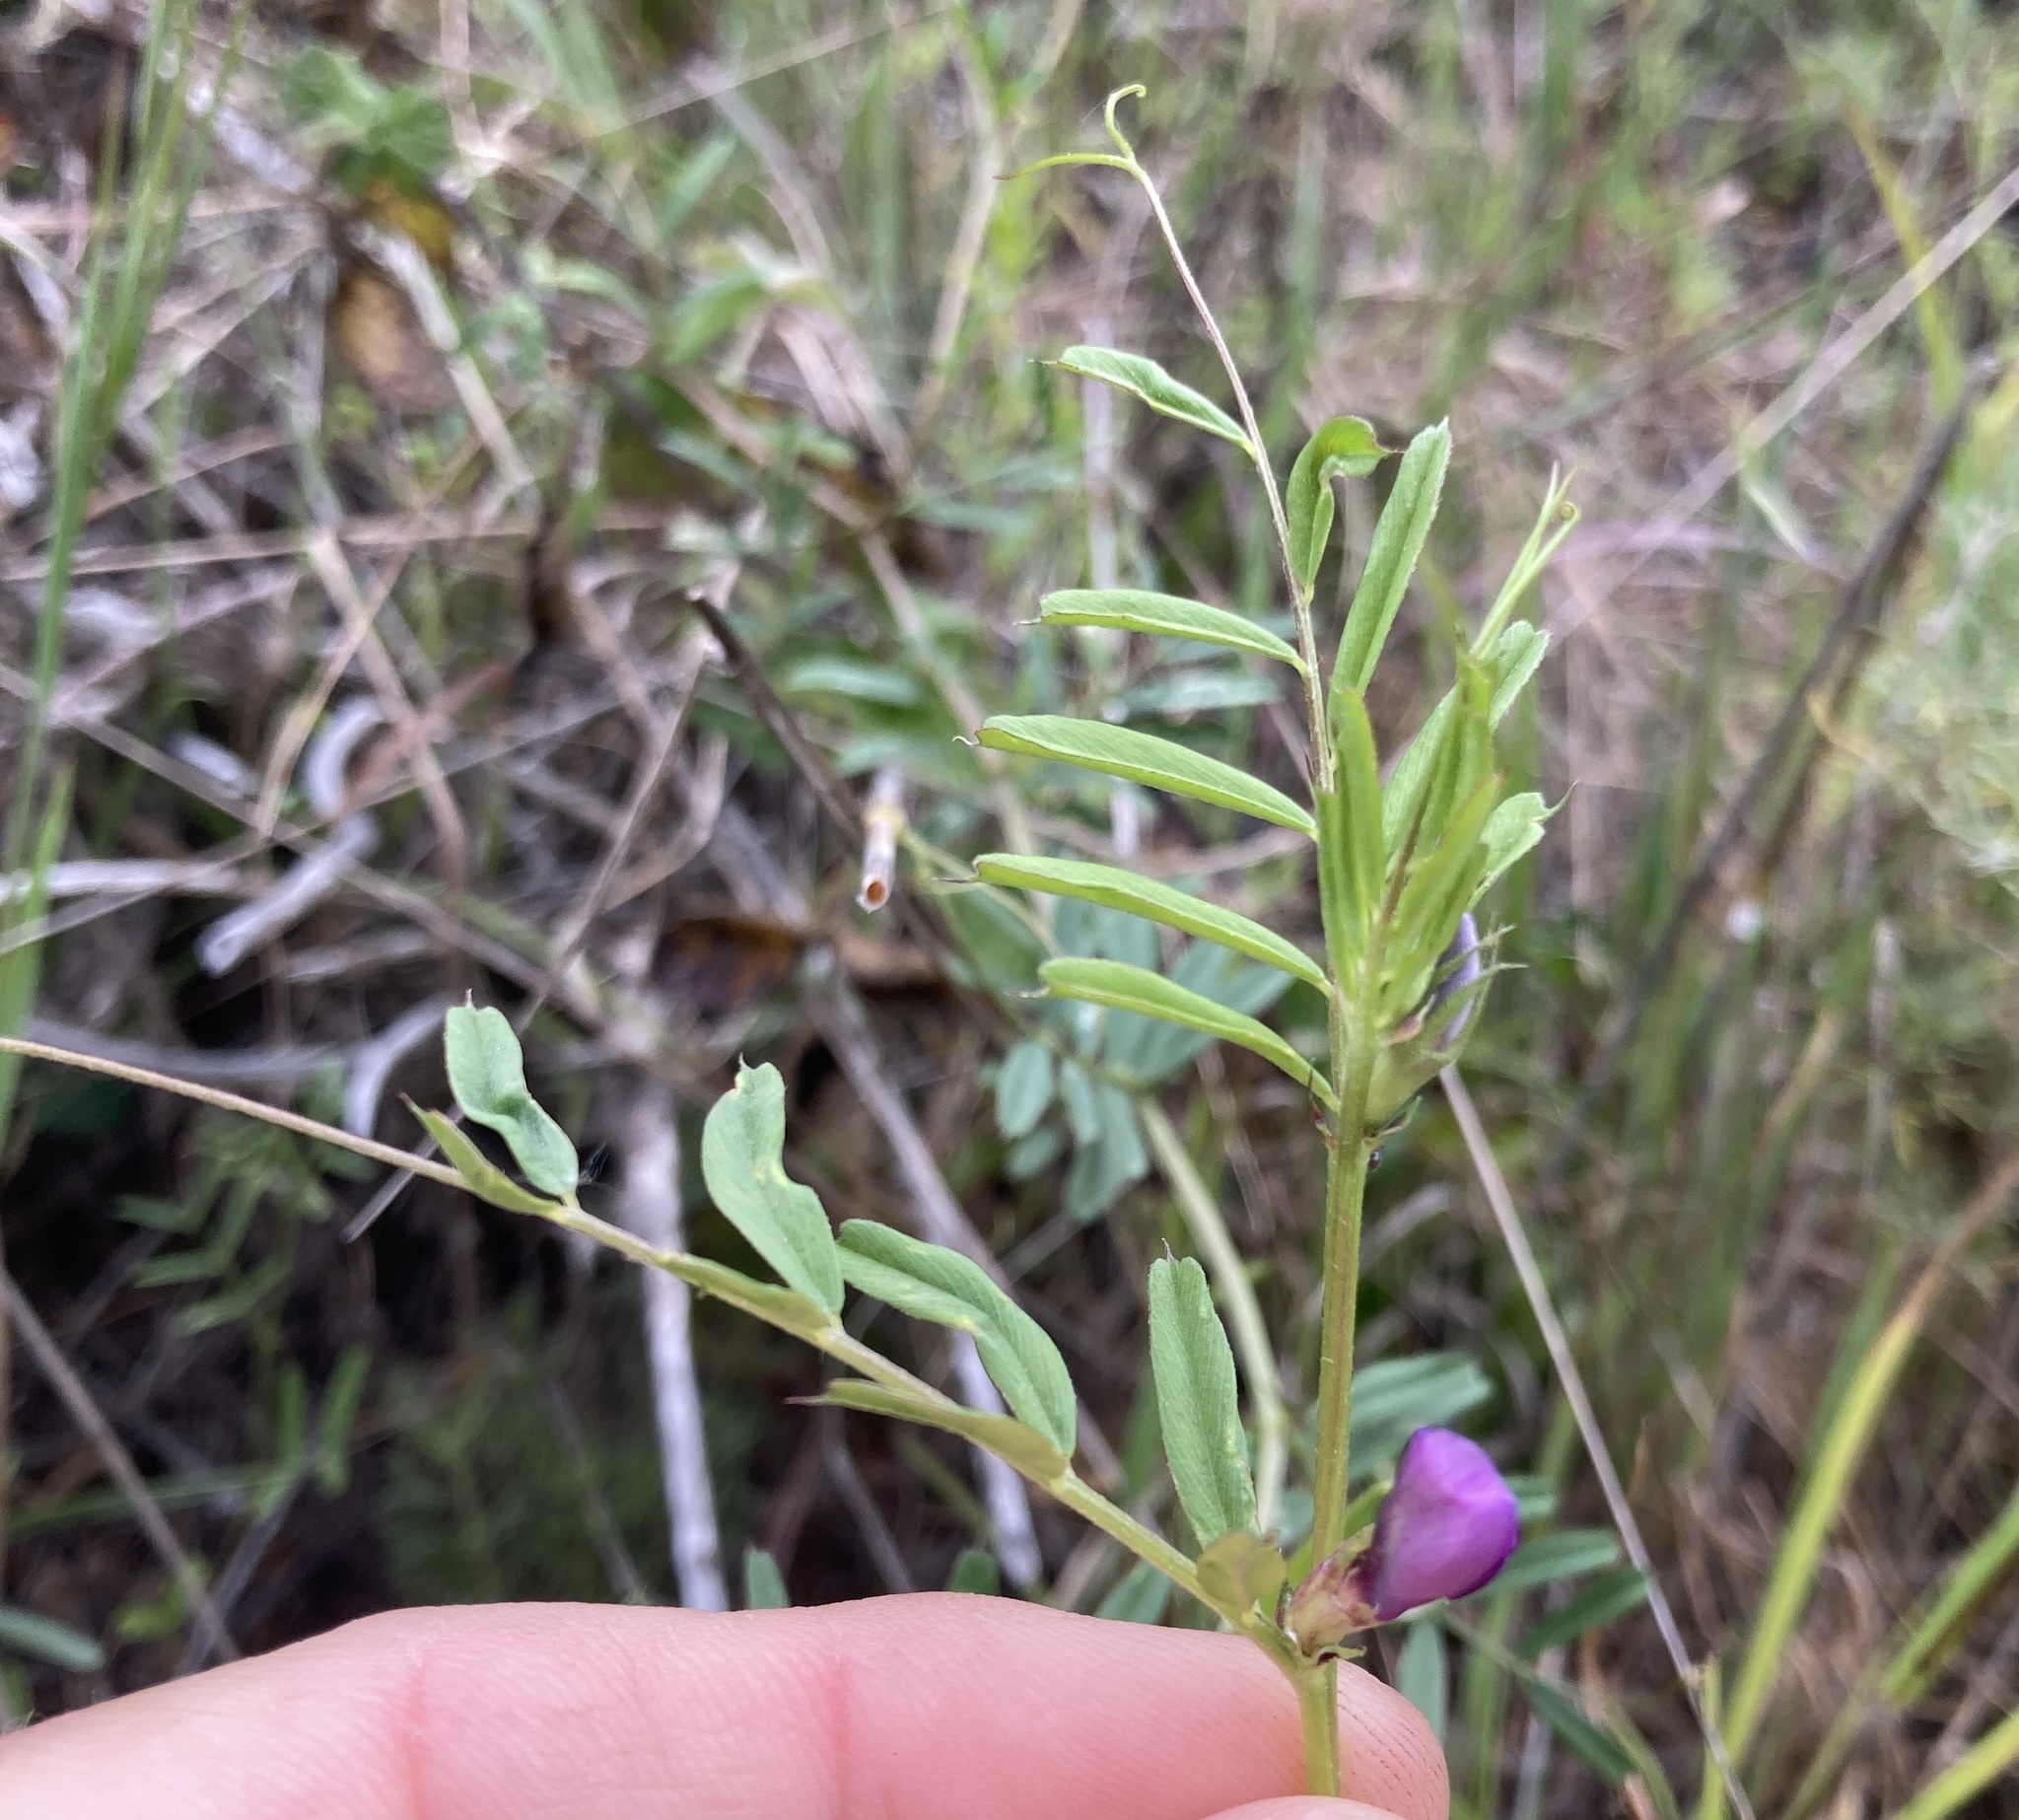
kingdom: Plantae
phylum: Tracheophyta
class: Magnoliopsida
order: Fabales
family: Fabaceae
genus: Vicia
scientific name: Vicia sativa
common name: Garden vetch
